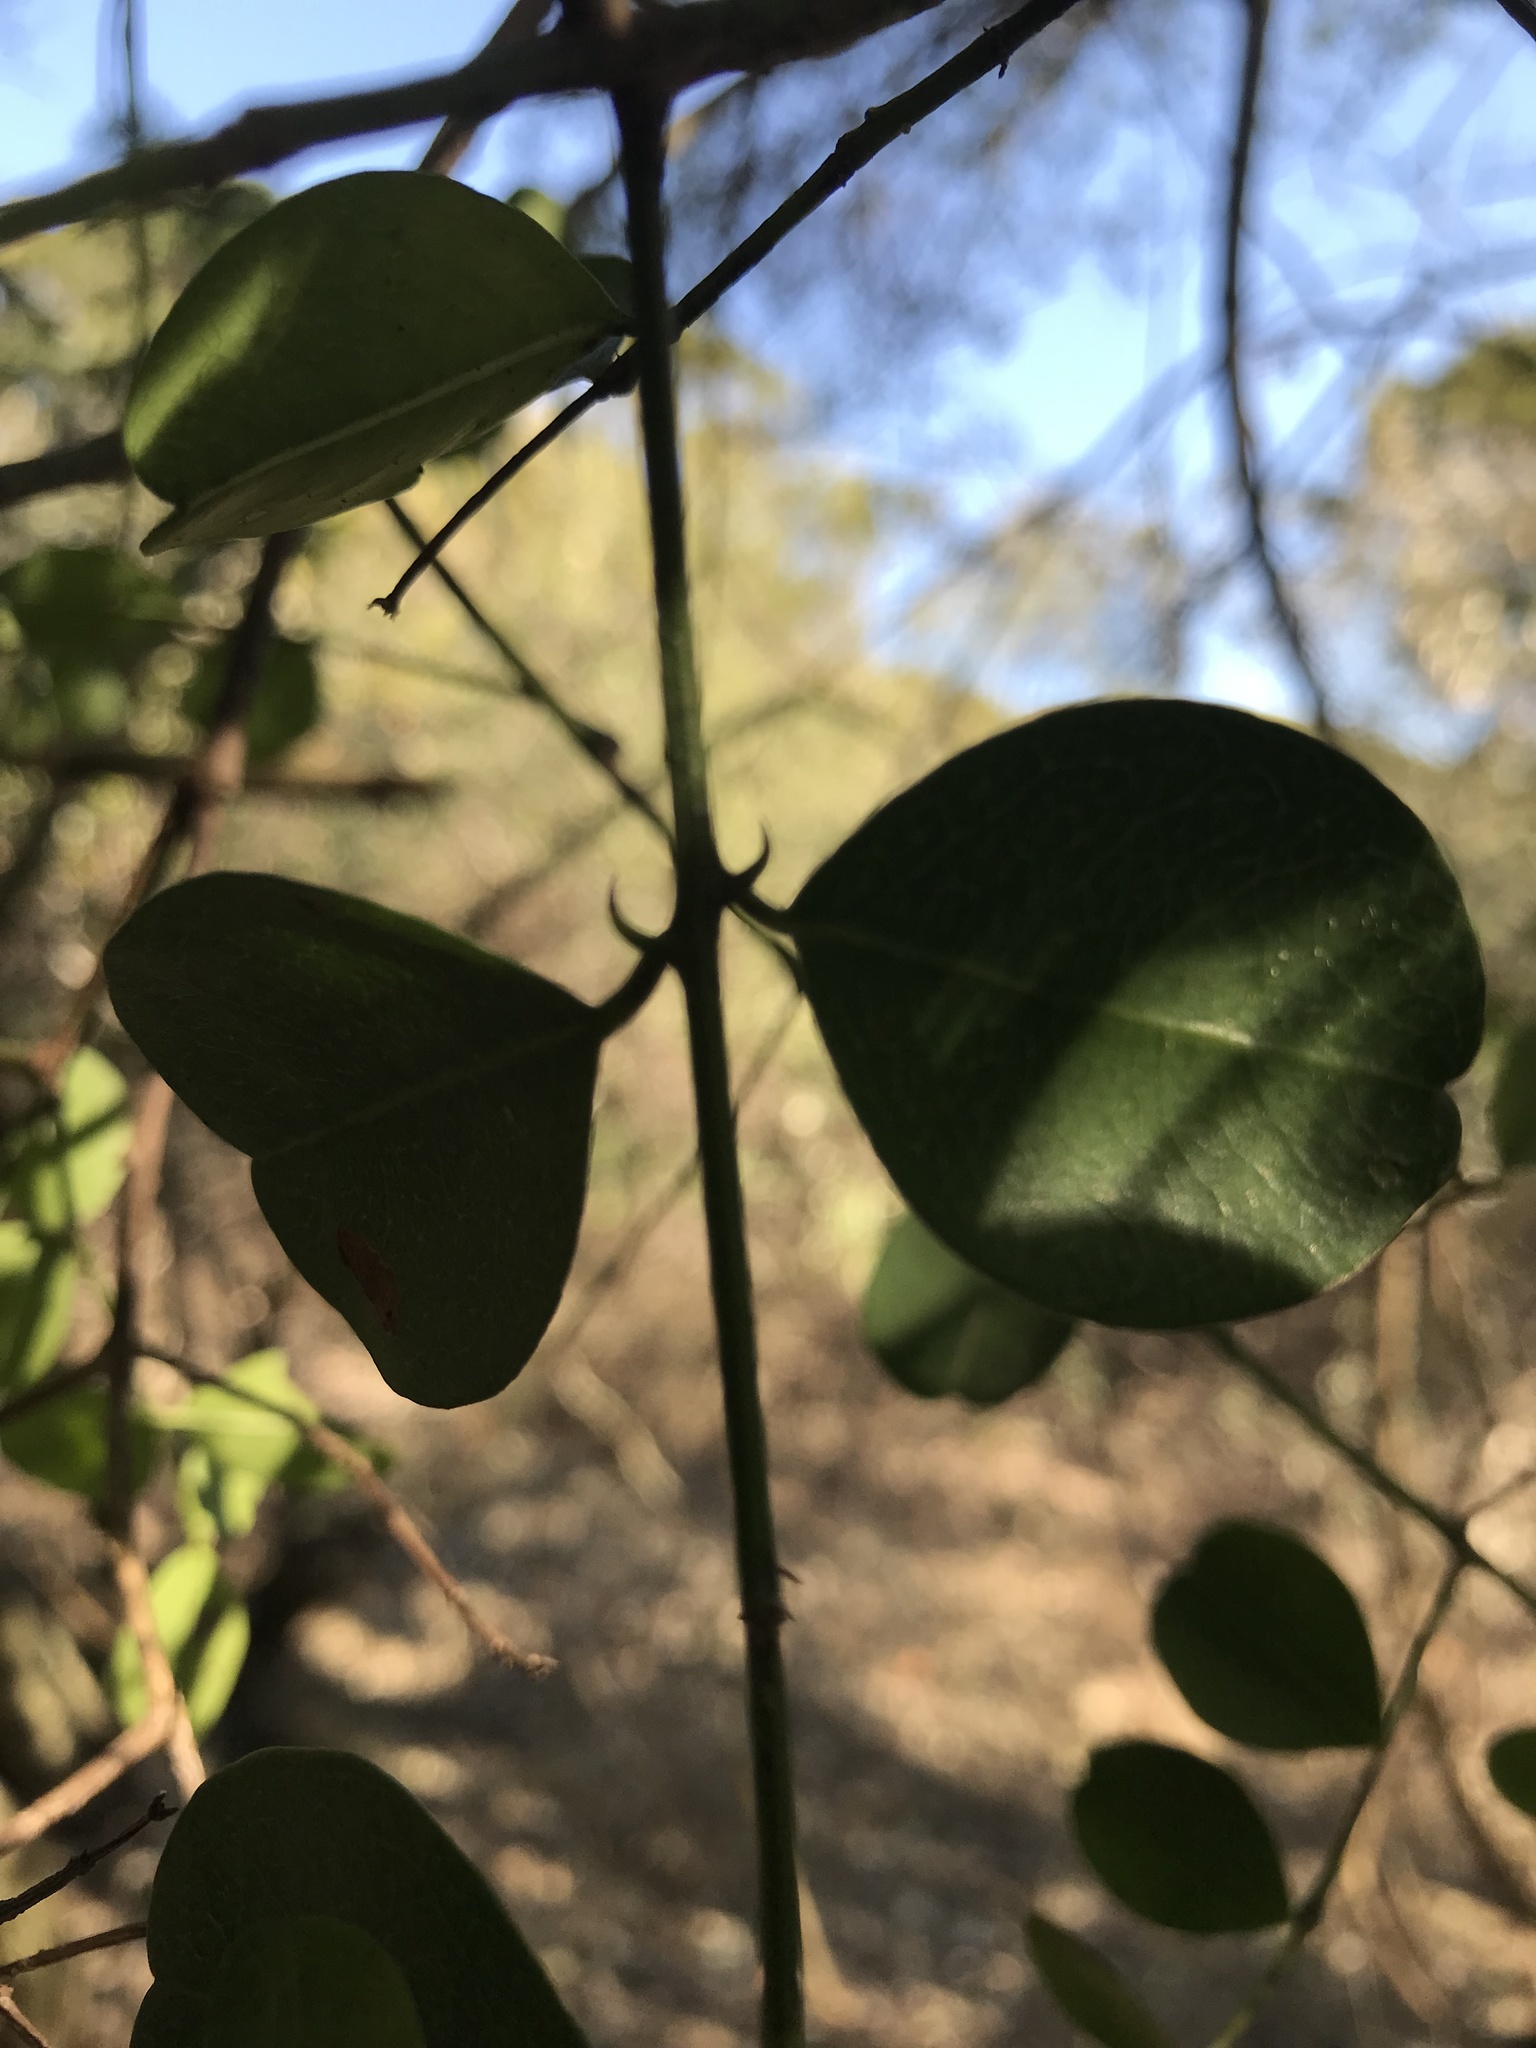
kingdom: Plantae
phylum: Tracheophyta
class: Magnoliopsida
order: Rosales
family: Rhamnaceae
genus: Scutia
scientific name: Scutia myrtina
